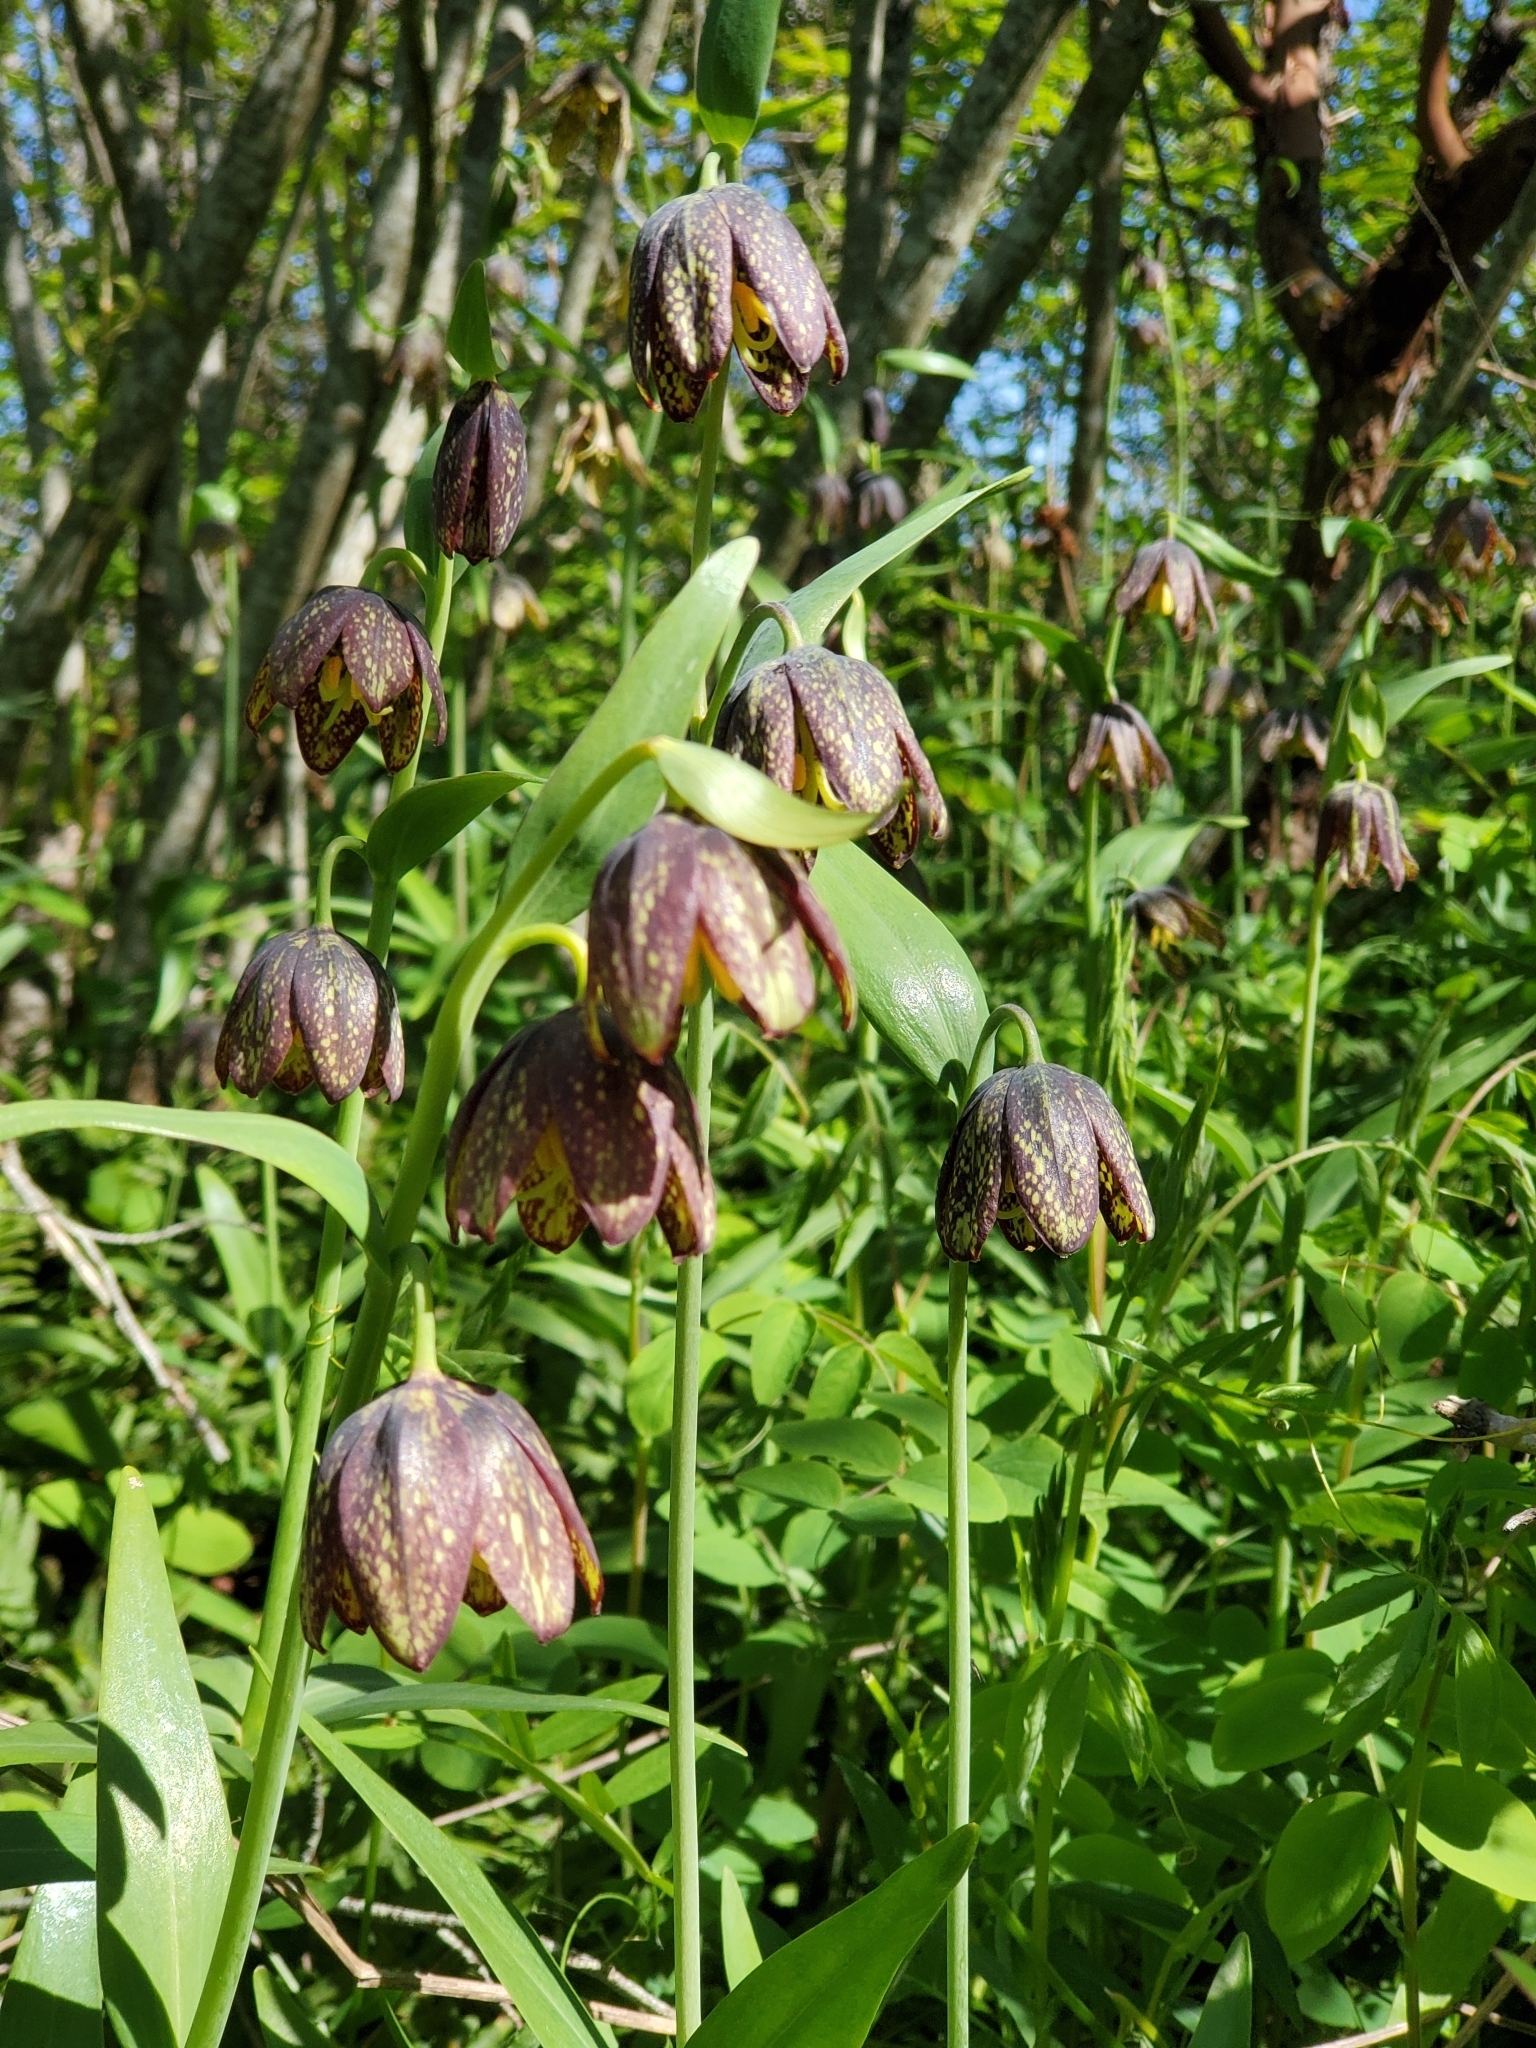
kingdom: Plantae
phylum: Tracheophyta
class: Liliopsida
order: Liliales
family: Liliaceae
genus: Fritillaria
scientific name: Fritillaria affinis
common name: Ojai fritillary
